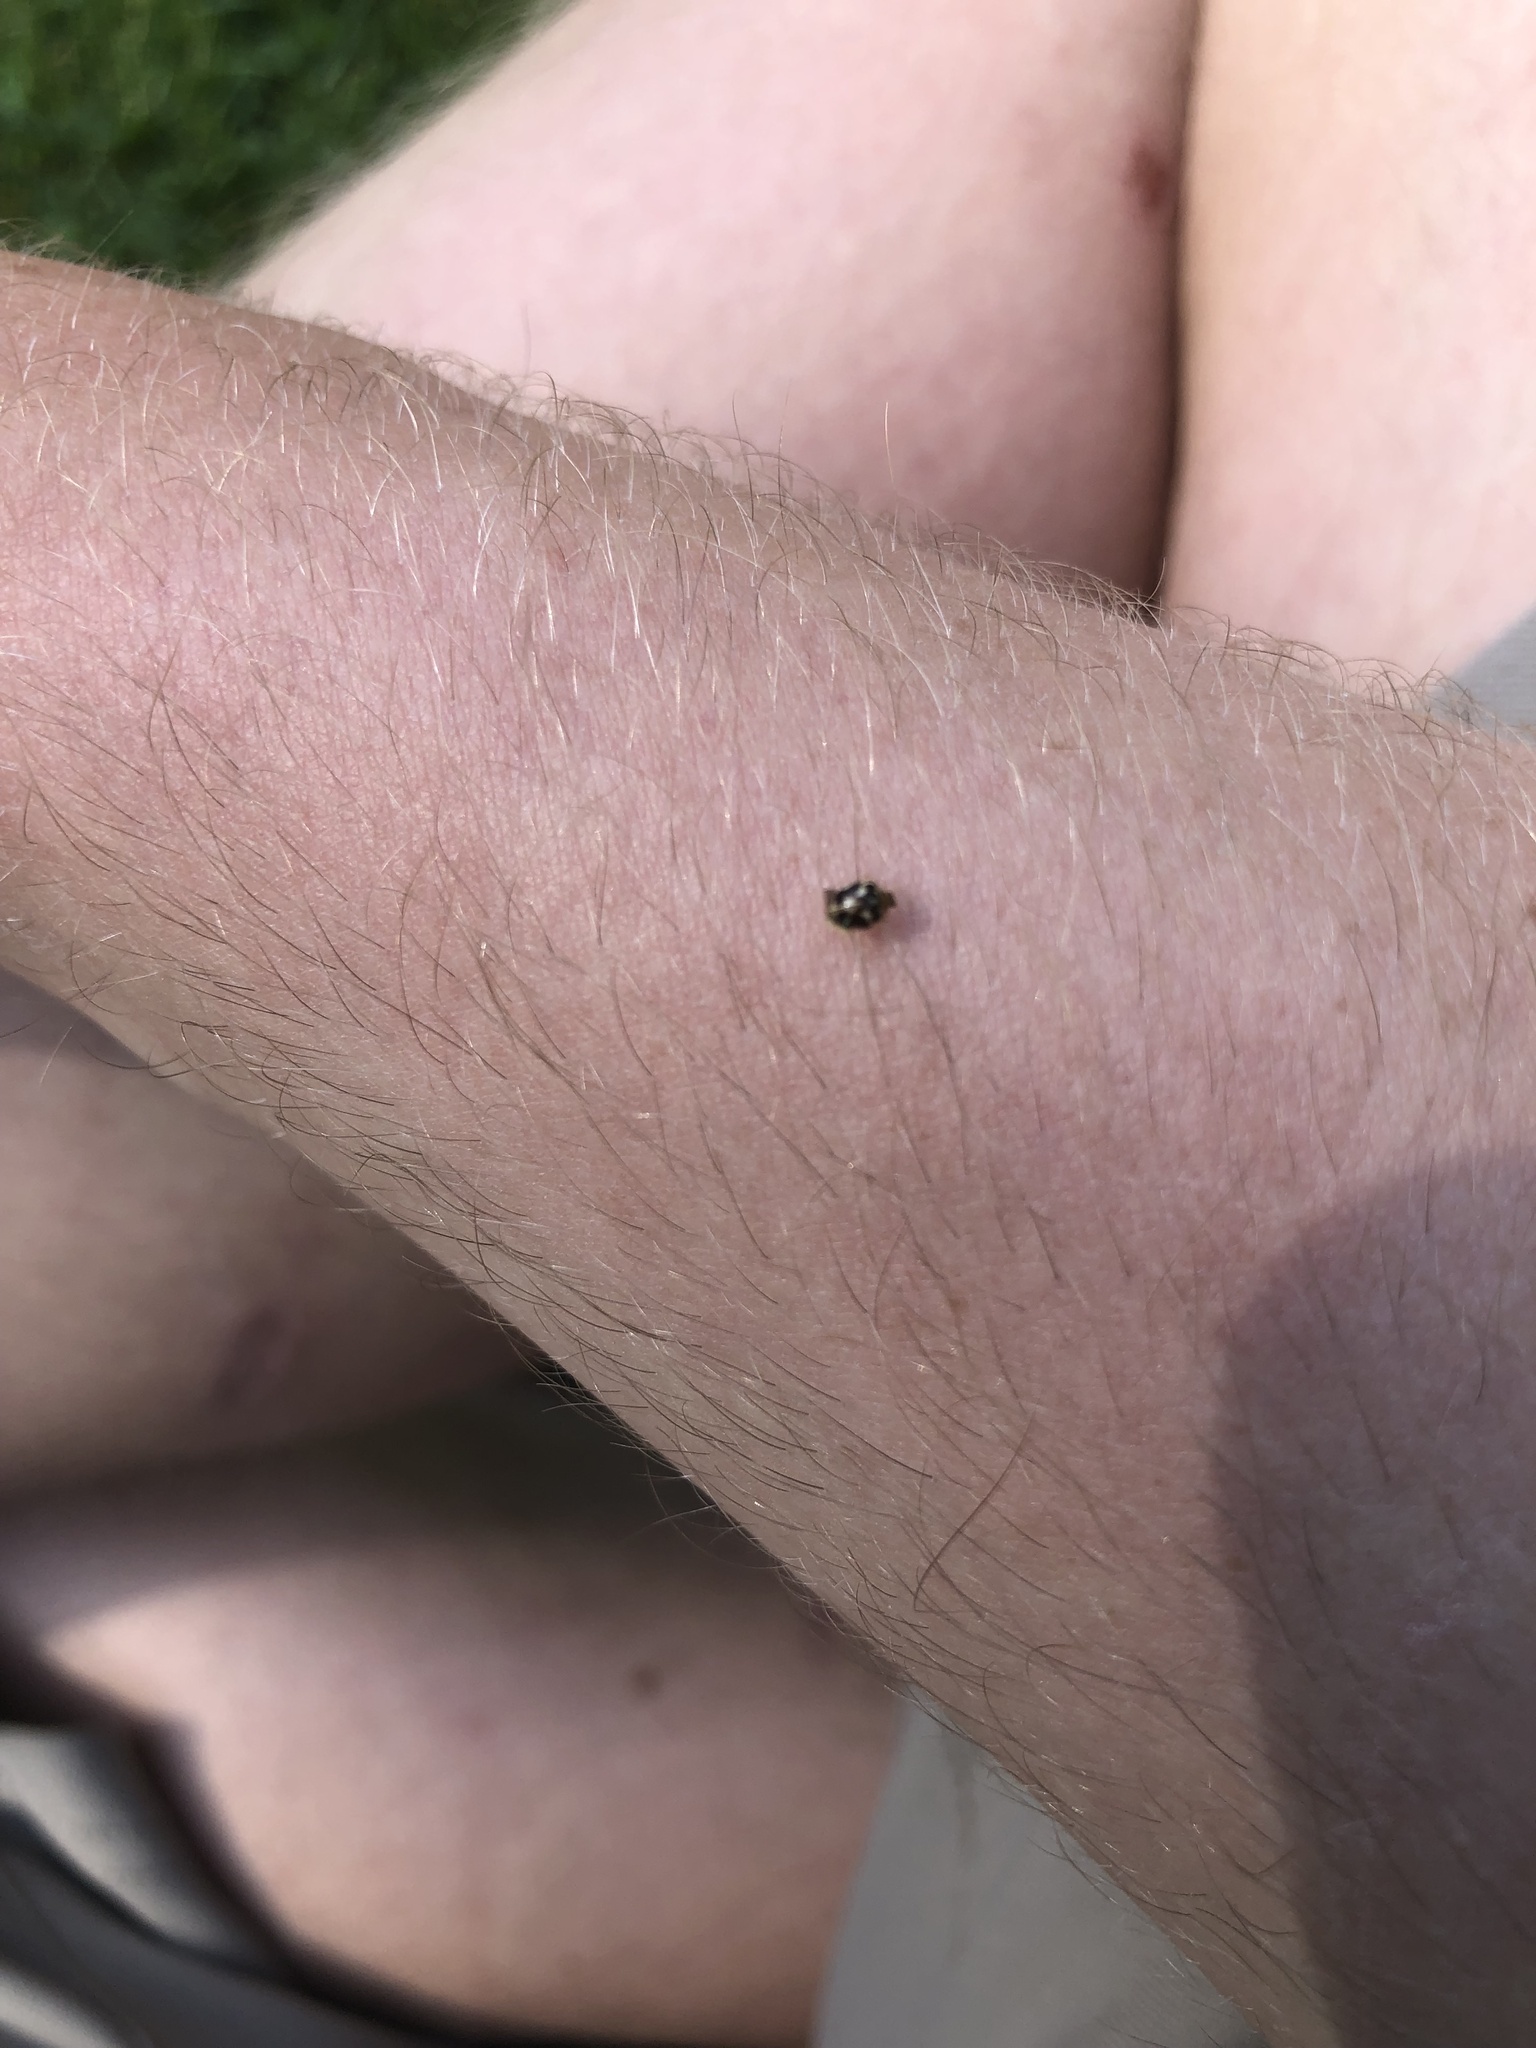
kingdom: Animalia
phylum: Arthropoda
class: Insecta
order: Coleoptera
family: Coccinellidae
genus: Psyllobora
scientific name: Psyllobora vigintimaculata
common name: Ladybird beetle
